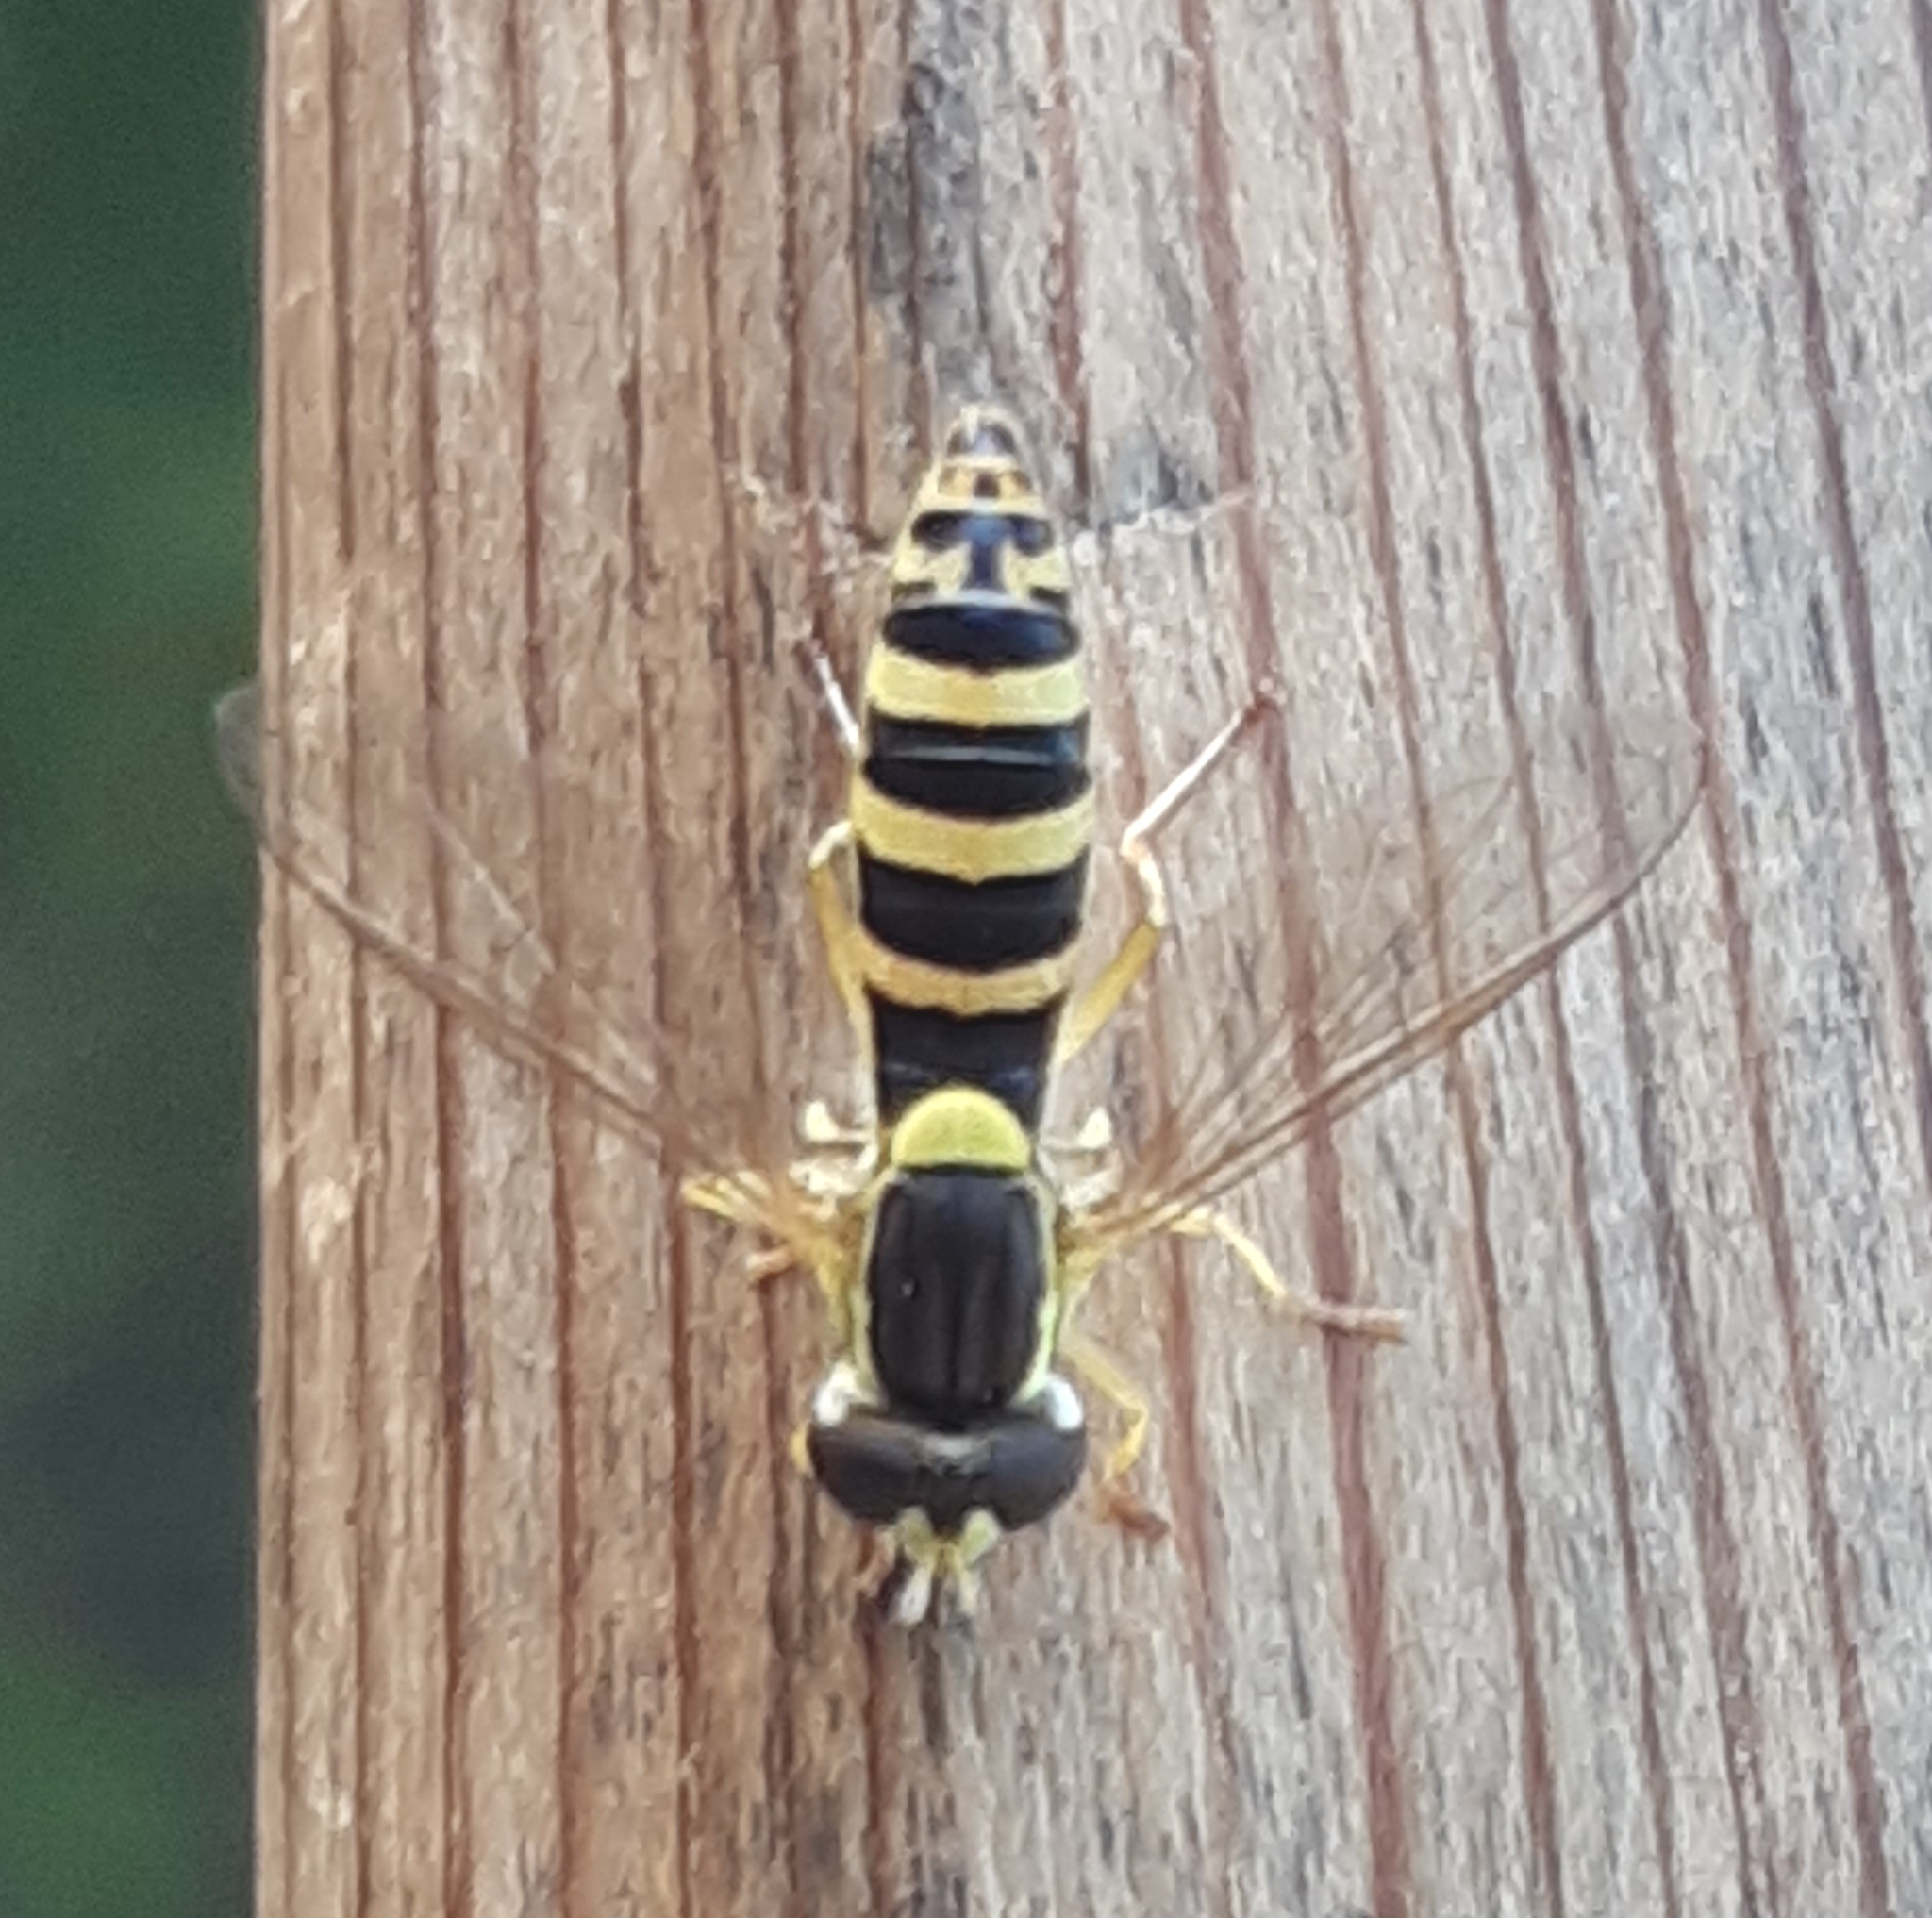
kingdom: Animalia
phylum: Arthropoda
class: Insecta
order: Diptera
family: Syrphidae
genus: Sphaerophoria
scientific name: Sphaerophoria
